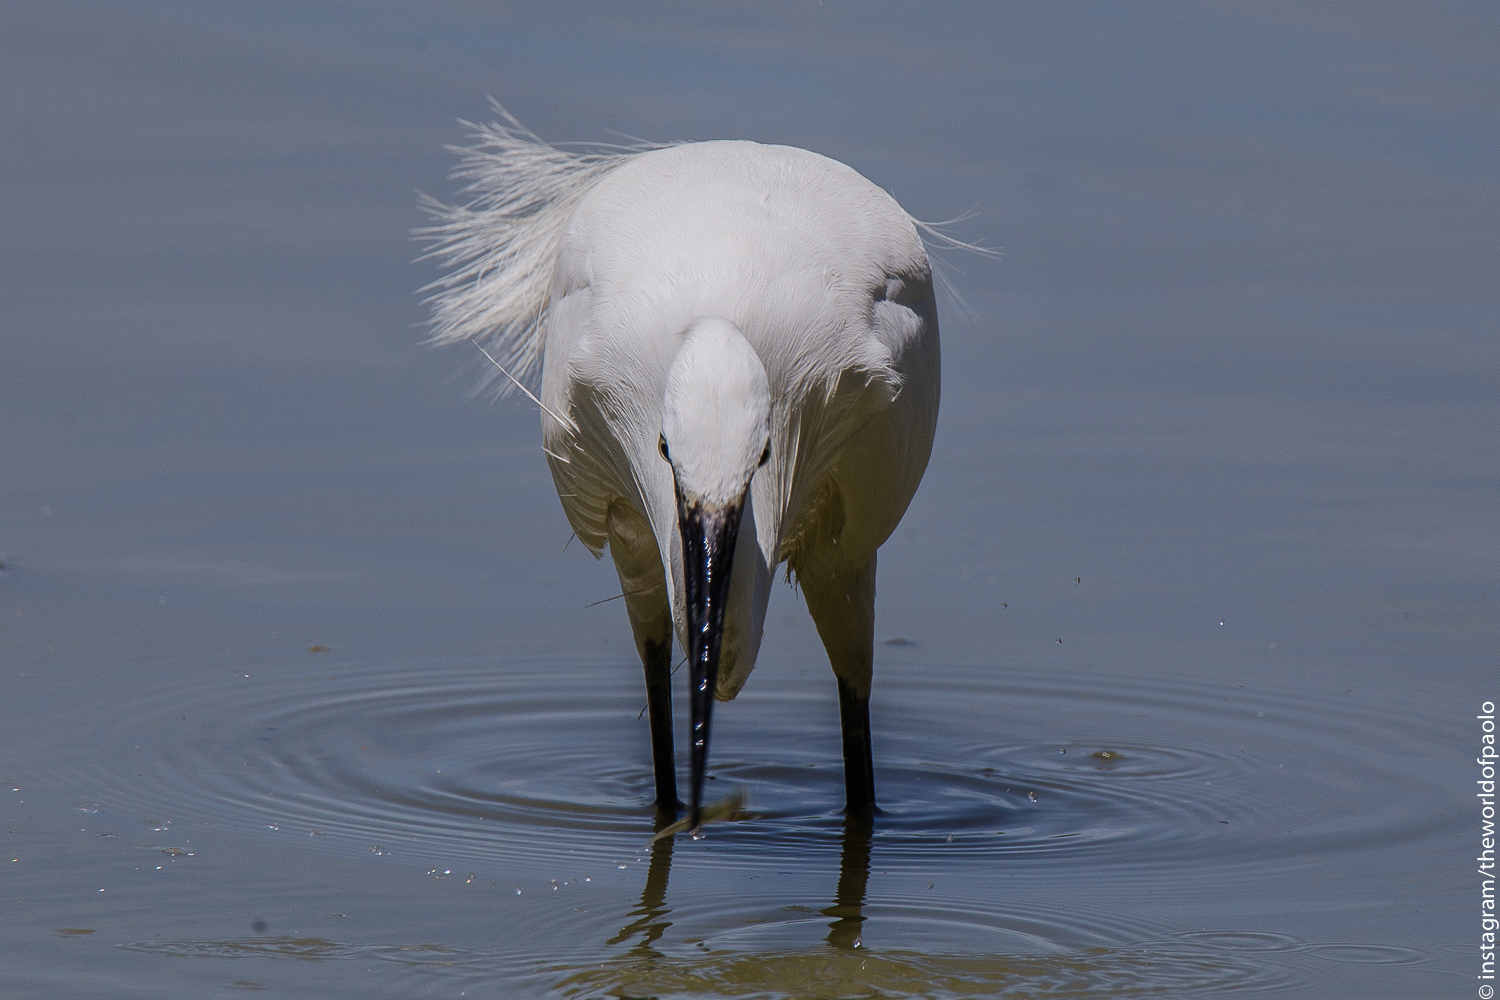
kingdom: Animalia
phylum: Chordata
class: Aves
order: Pelecaniformes
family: Ardeidae
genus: Egretta
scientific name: Egretta garzetta
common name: Little egret
